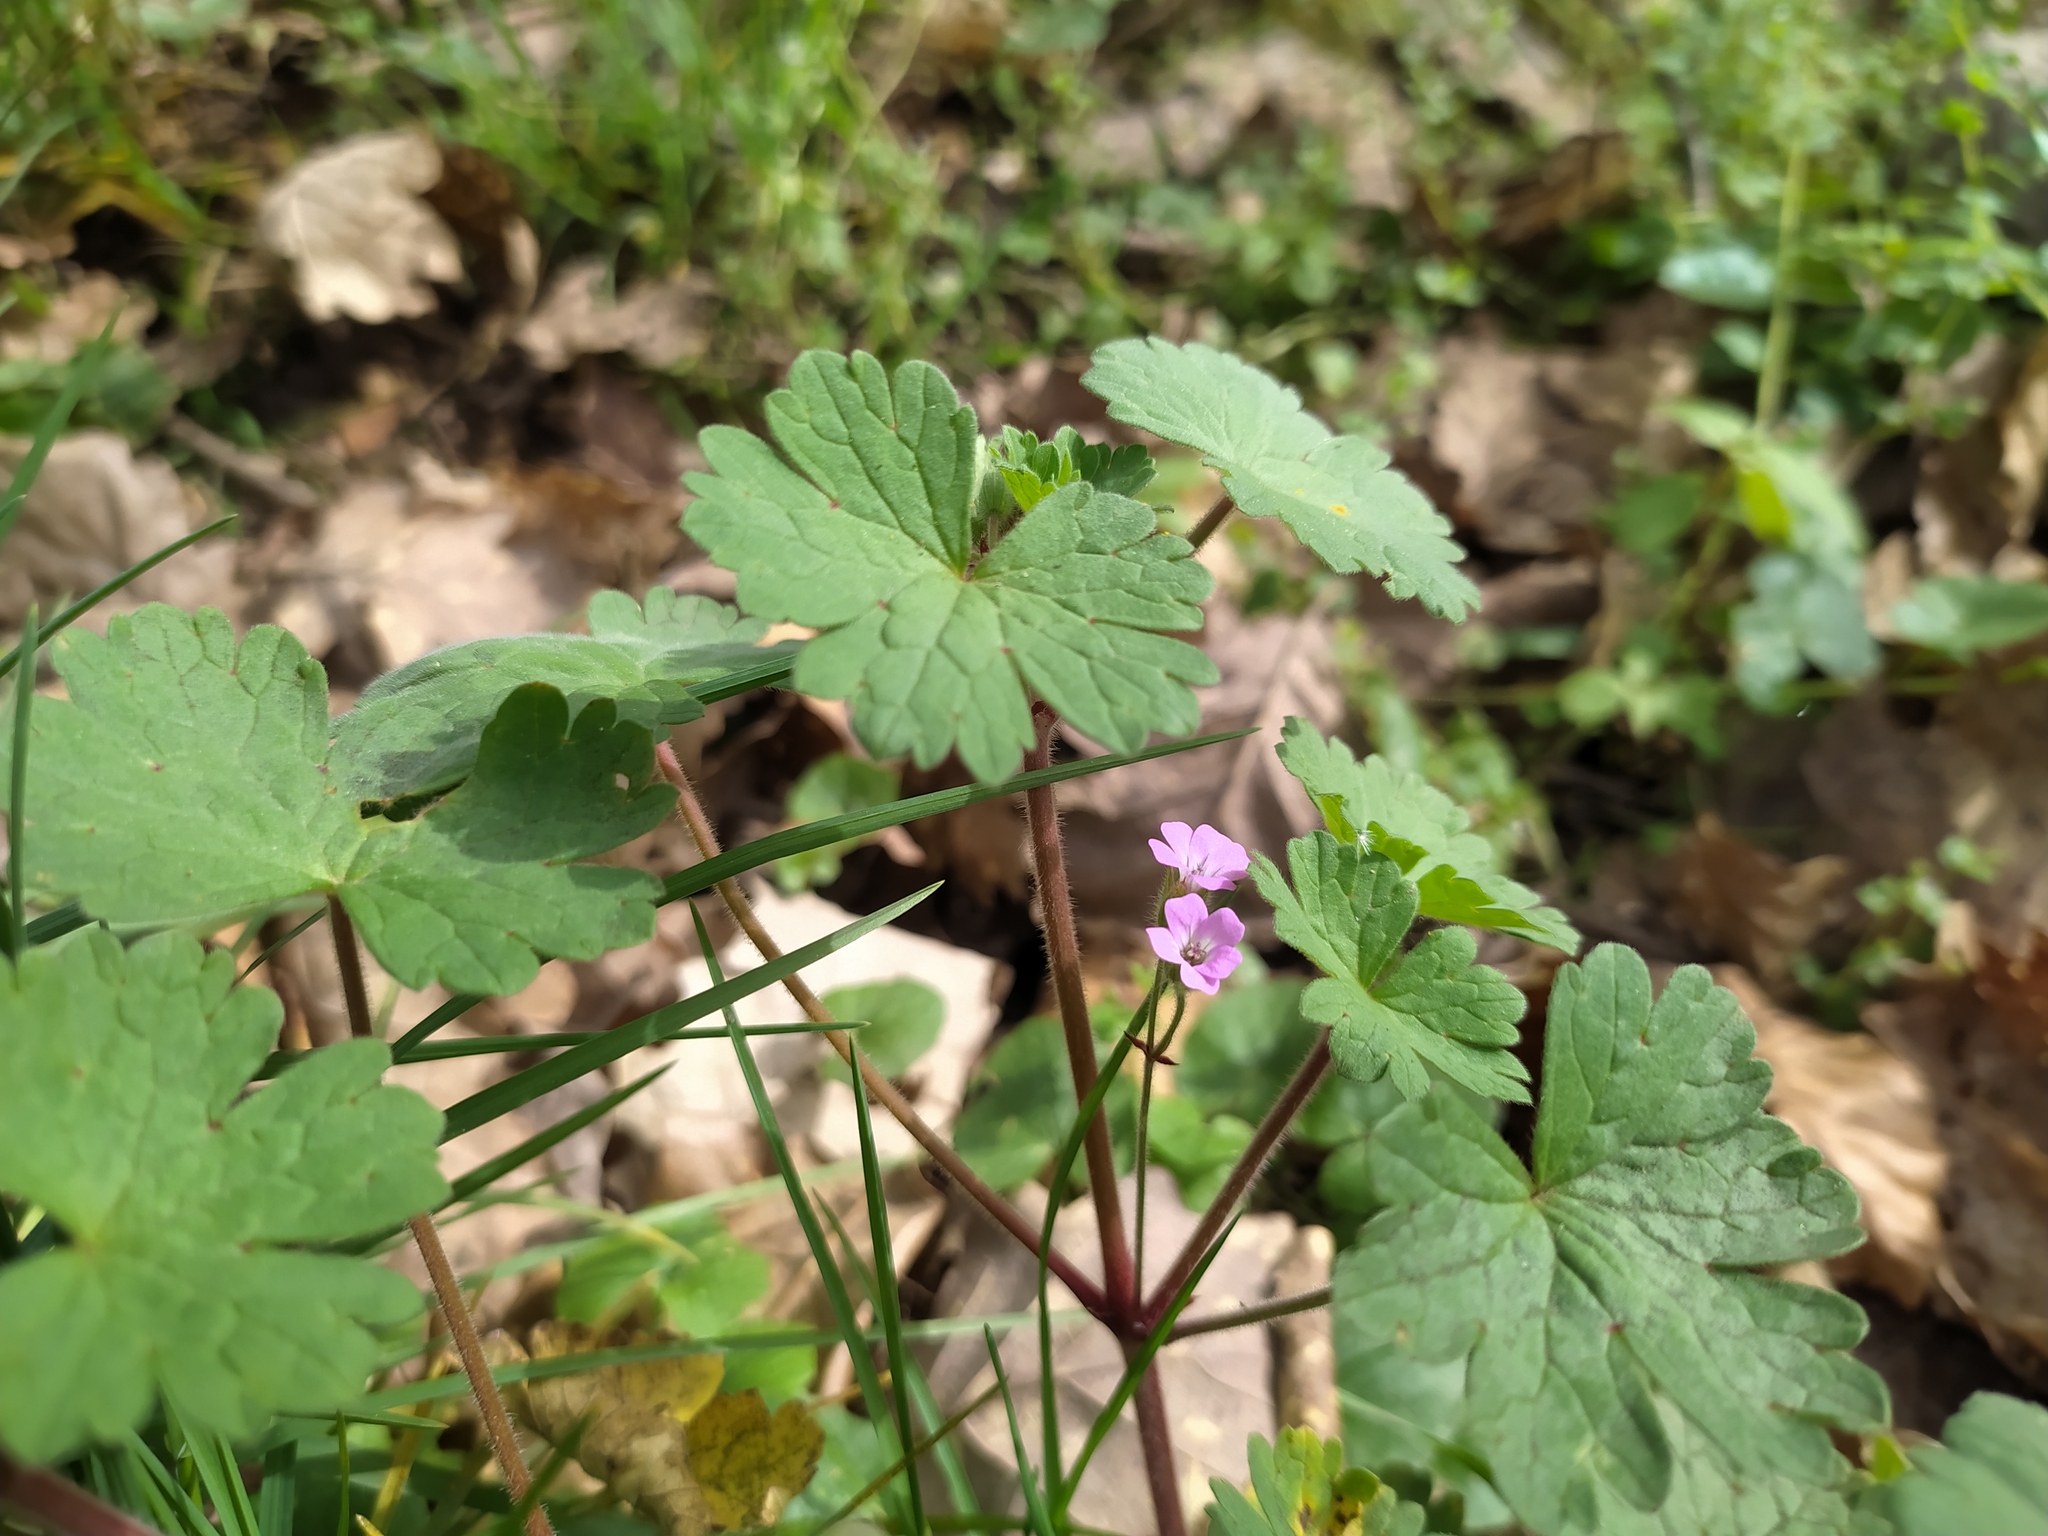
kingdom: Plantae
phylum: Tracheophyta
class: Magnoliopsida
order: Geraniales
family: Geraniaceae
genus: Geranium
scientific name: Geranium rotundifolium
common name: Round-leaved crane's-bill
